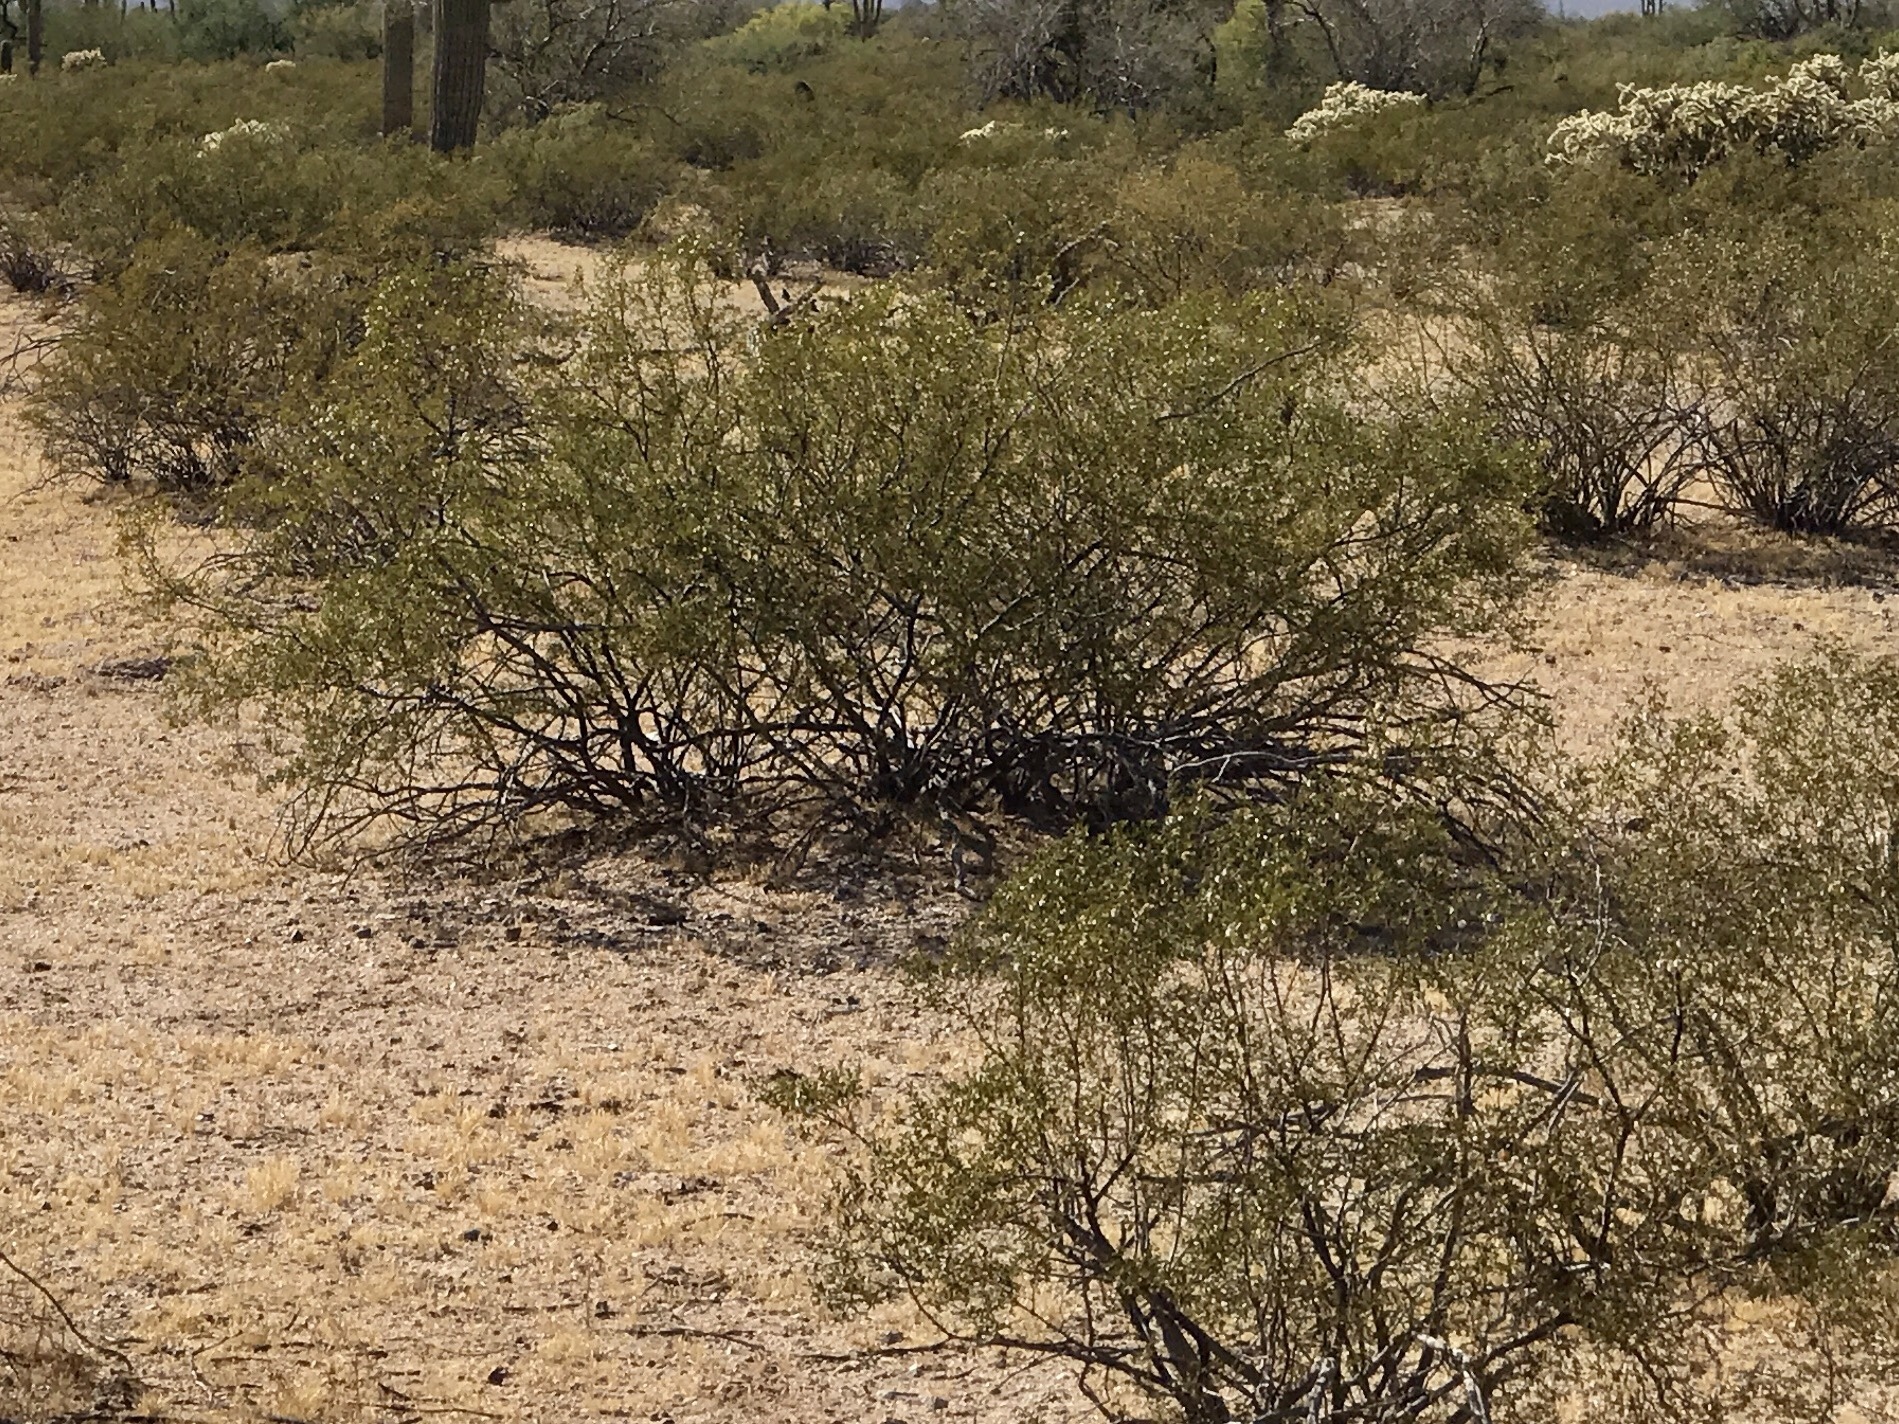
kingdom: Plantae
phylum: Tracheophyta
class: Magnoliopsida
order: Zygophyllales
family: Zygophyllaceae
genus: Larrea
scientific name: Larrea tridentata
